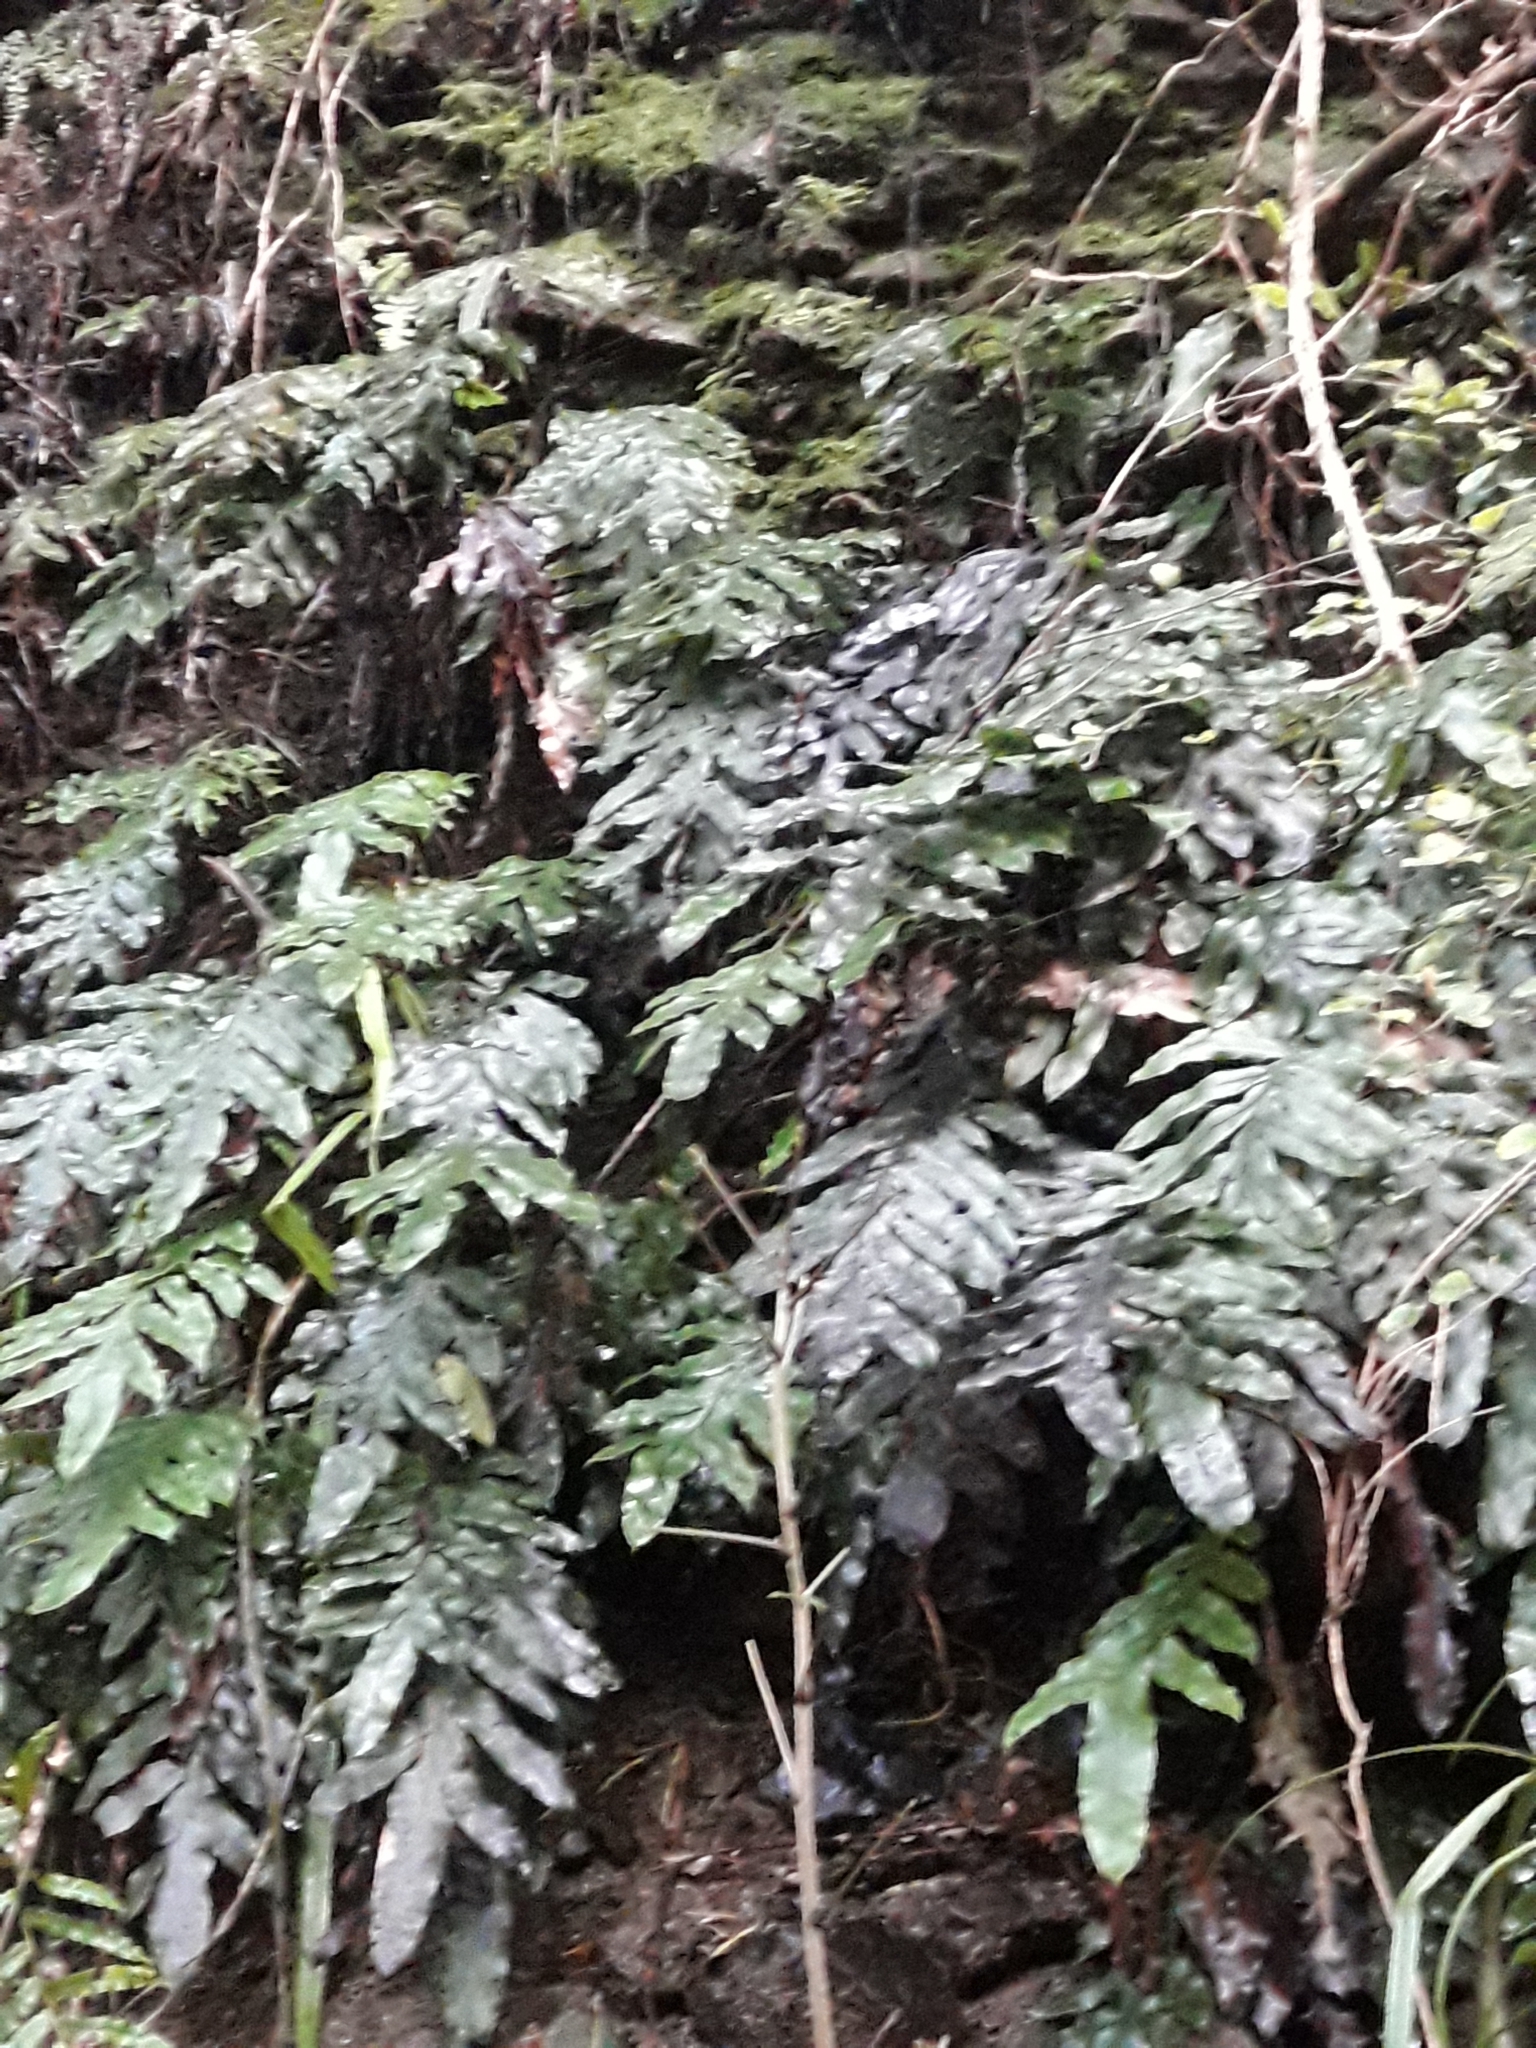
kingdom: Plantae
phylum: Tracheophyta
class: Polypodiopsida
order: Polypodiales
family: Blechnaceae
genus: Austroblechnum
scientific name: Austroblechnum colensoi
